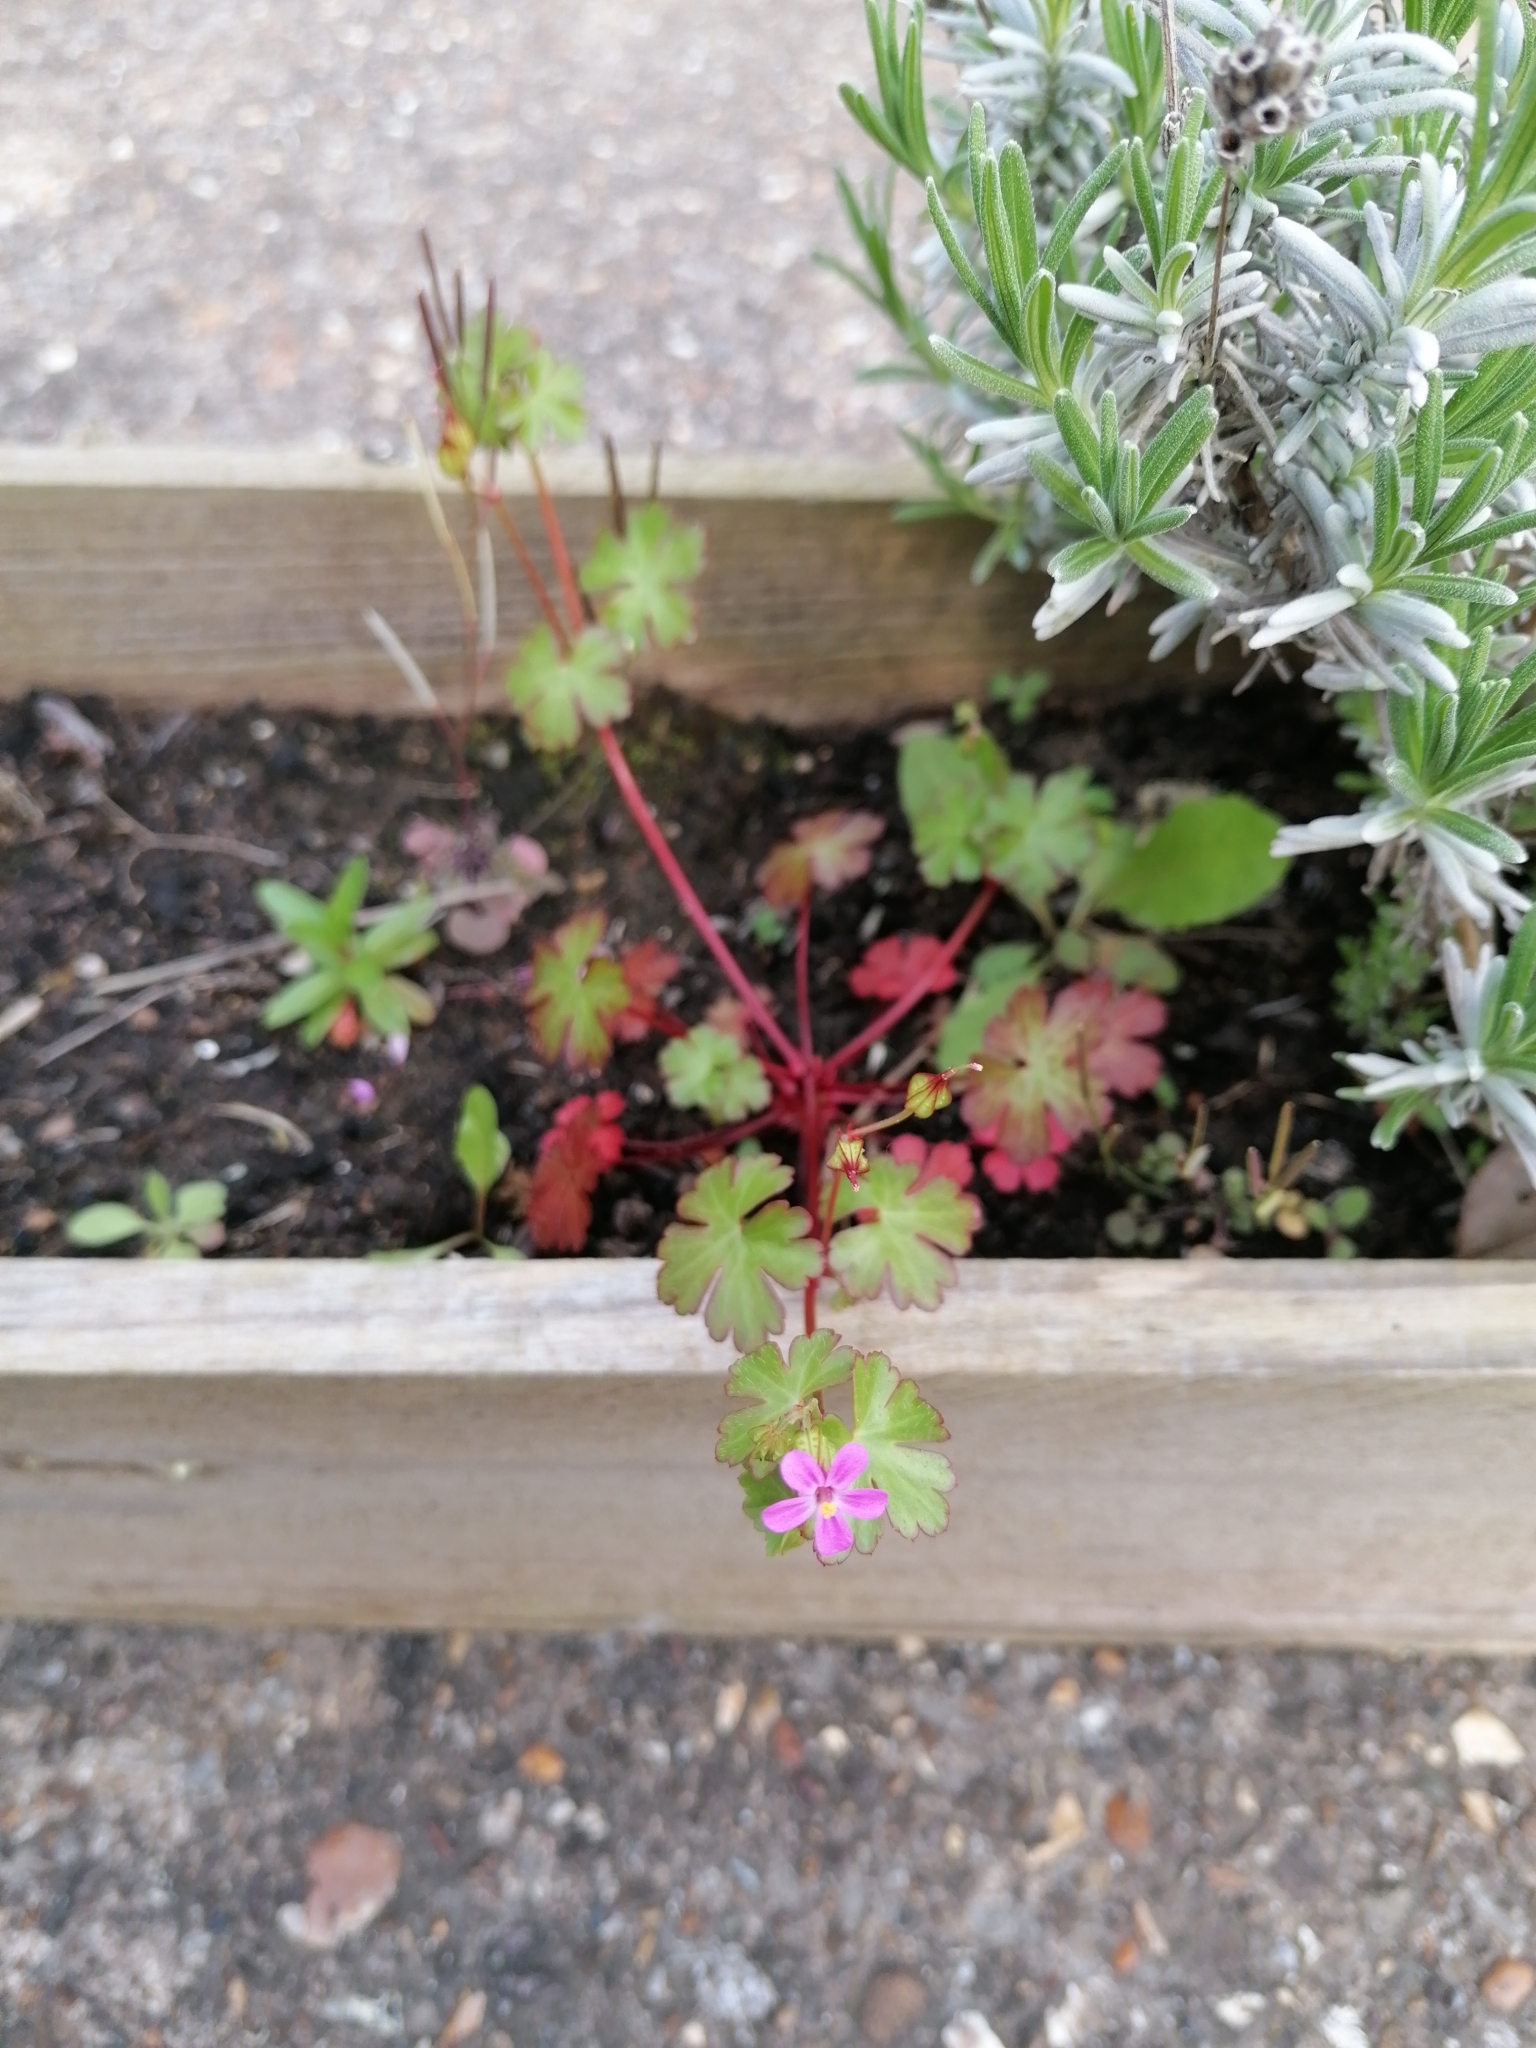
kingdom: Plantae
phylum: Tracheophyta
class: Magnoliopsida
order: Geraniales
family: Geraniaceae
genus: Geranium
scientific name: Geranium lucidum
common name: Shining crane's-bill
